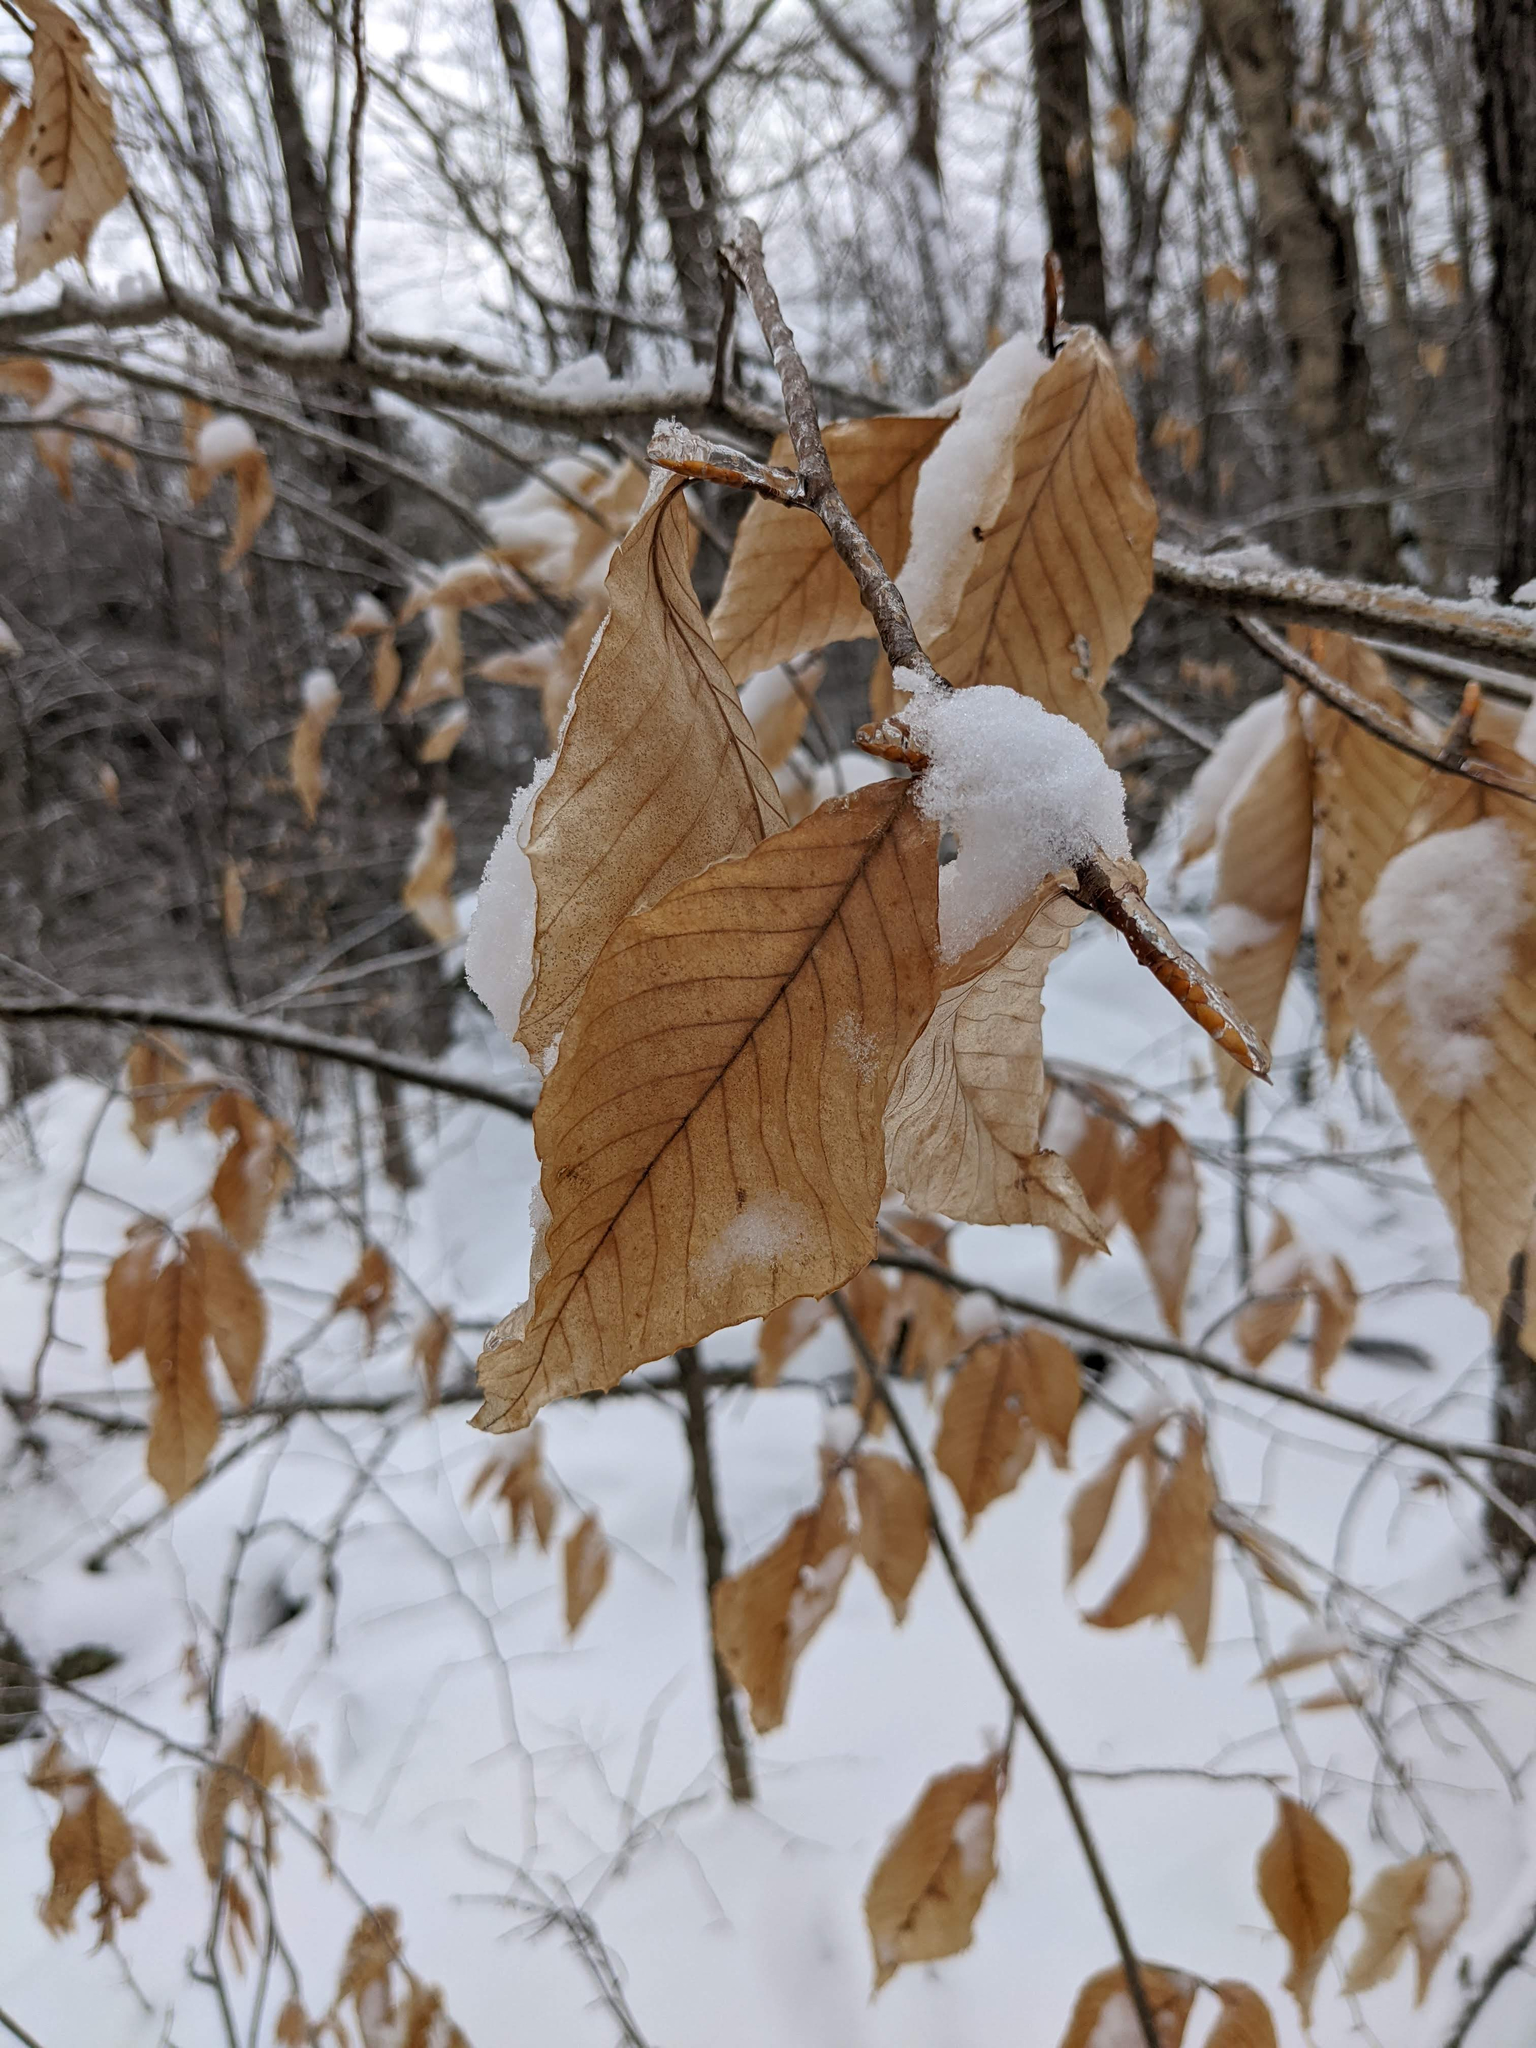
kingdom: Plantae
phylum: Tracheophyta
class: Magnoliopsida
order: Fagales
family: Fagaceae
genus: Fagus
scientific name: Fagus grandifolia
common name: American beech
